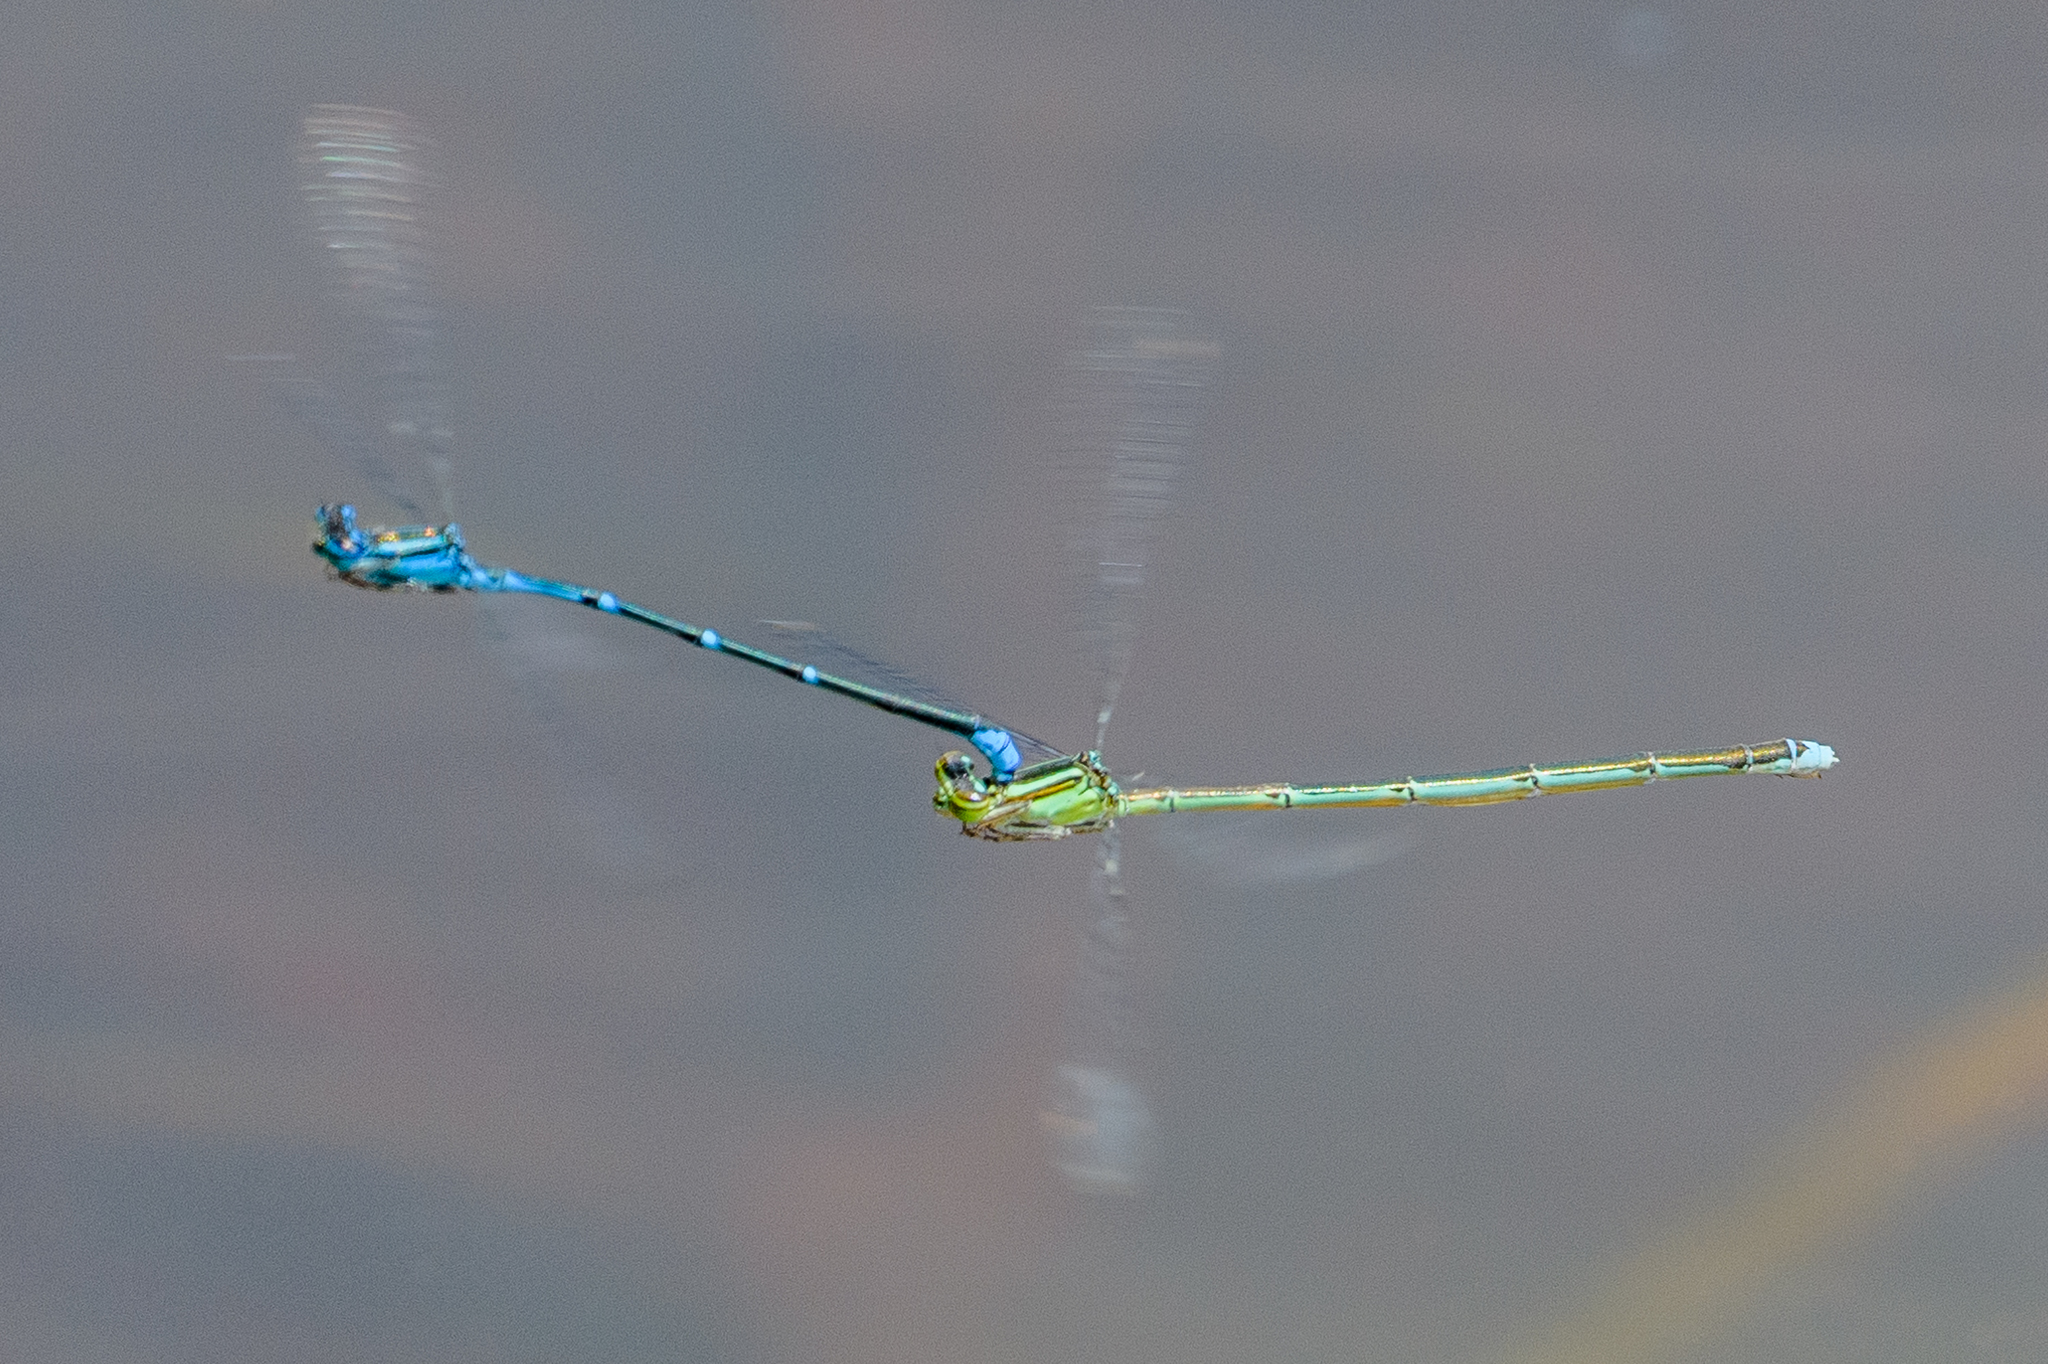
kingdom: Animalia
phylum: Arthropoda
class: Insecta
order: Odonata
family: Coenagrionidae
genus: Enallagma
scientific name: Enallagma exsulans
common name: Stream bluet
